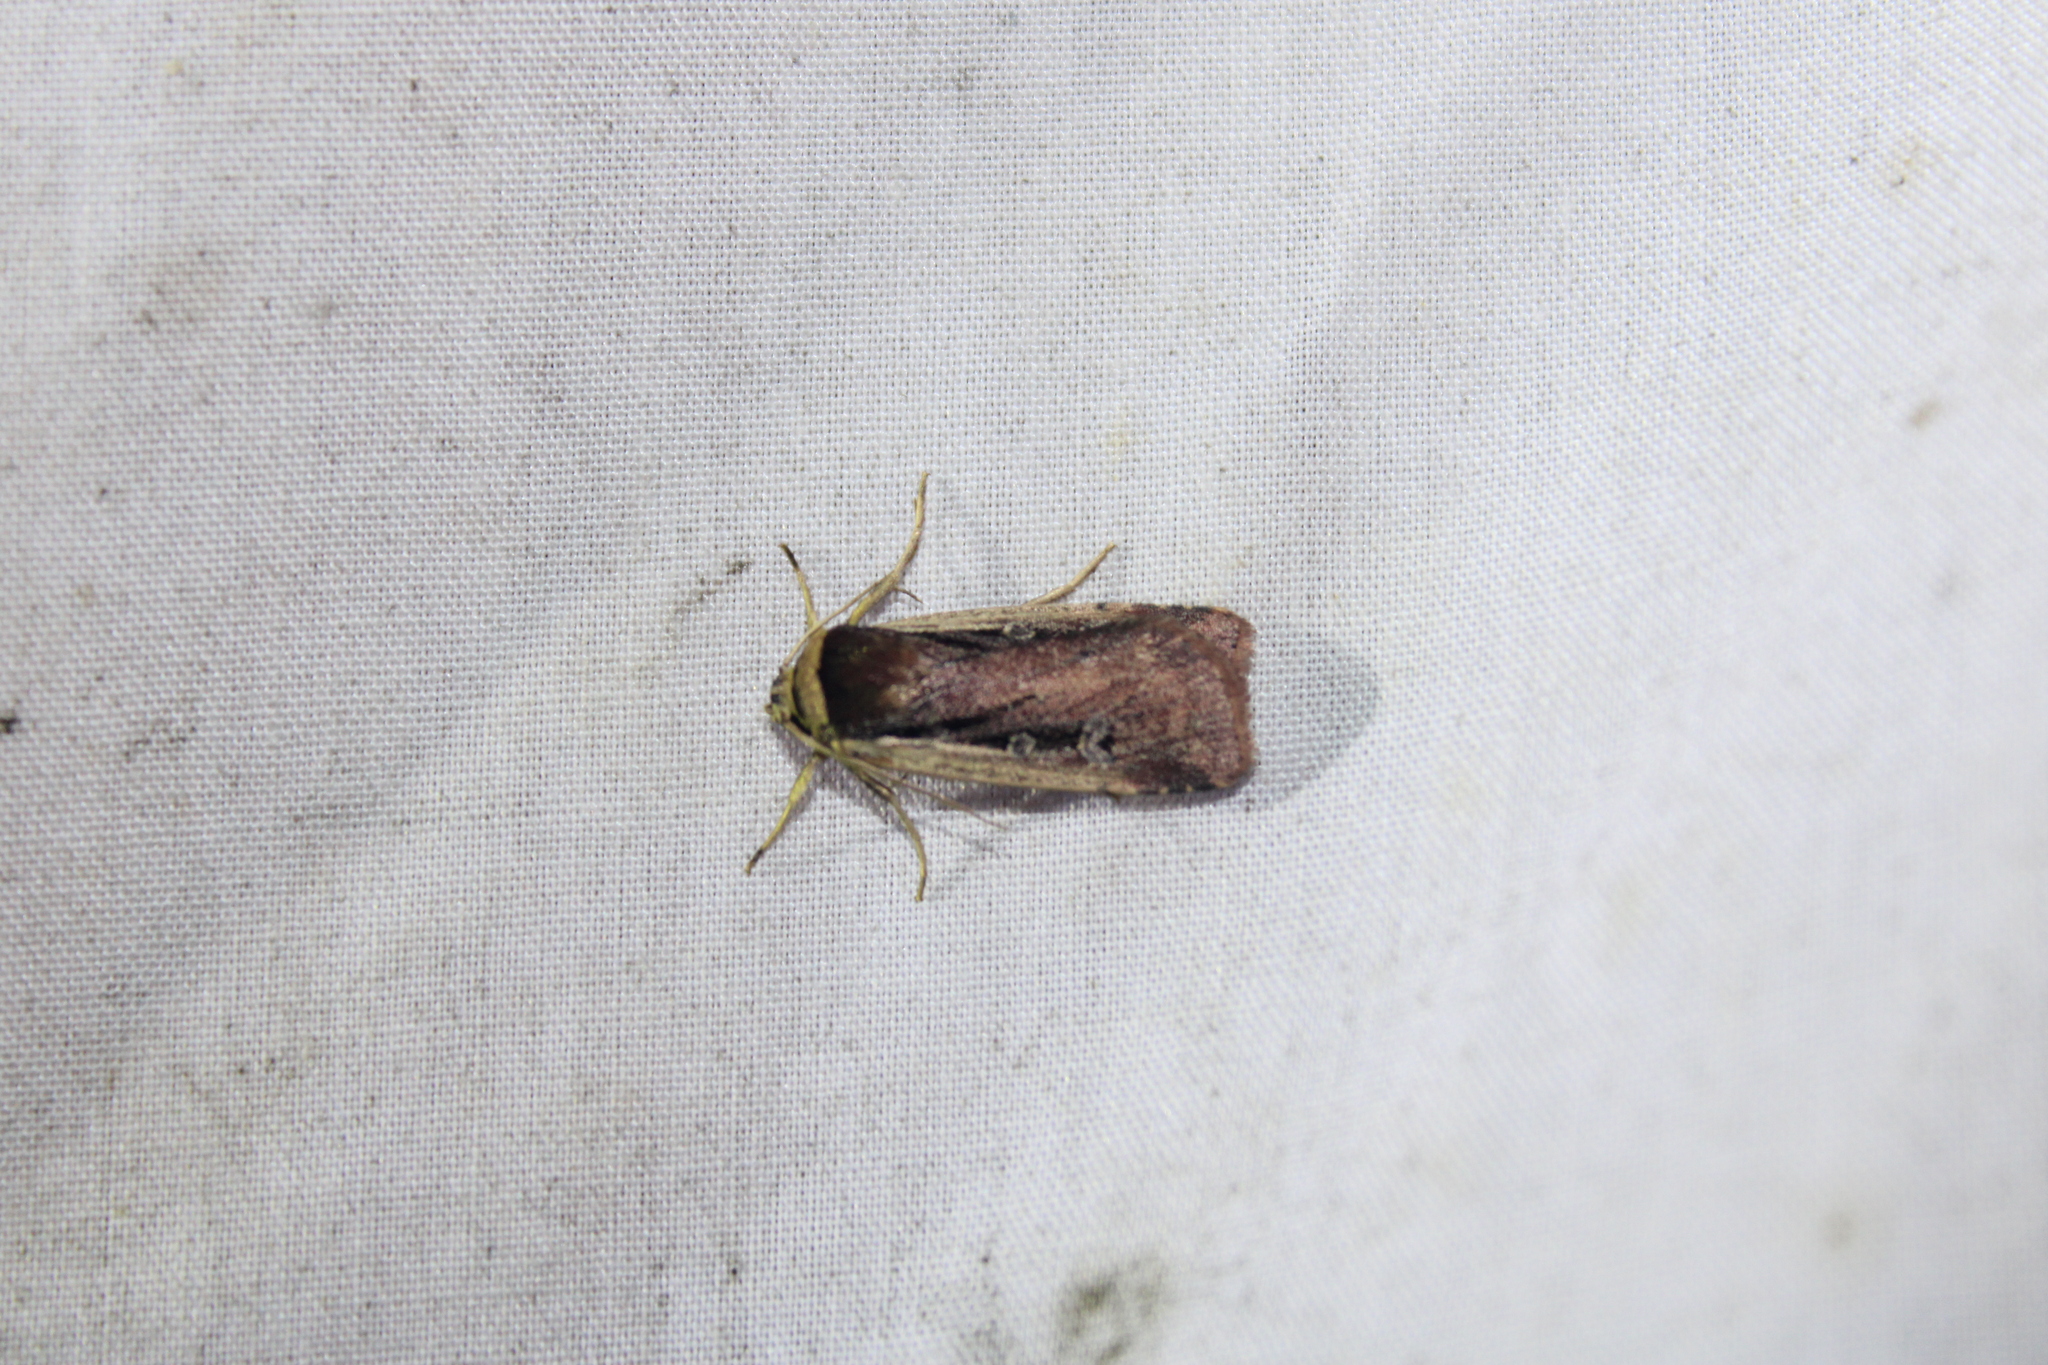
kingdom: Animalia
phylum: Arthropoda
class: Insecta
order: Lepidoptera
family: Noctuidae
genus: Ochropleura
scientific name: Ochropleura implecta
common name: Flame-shouldered dart
